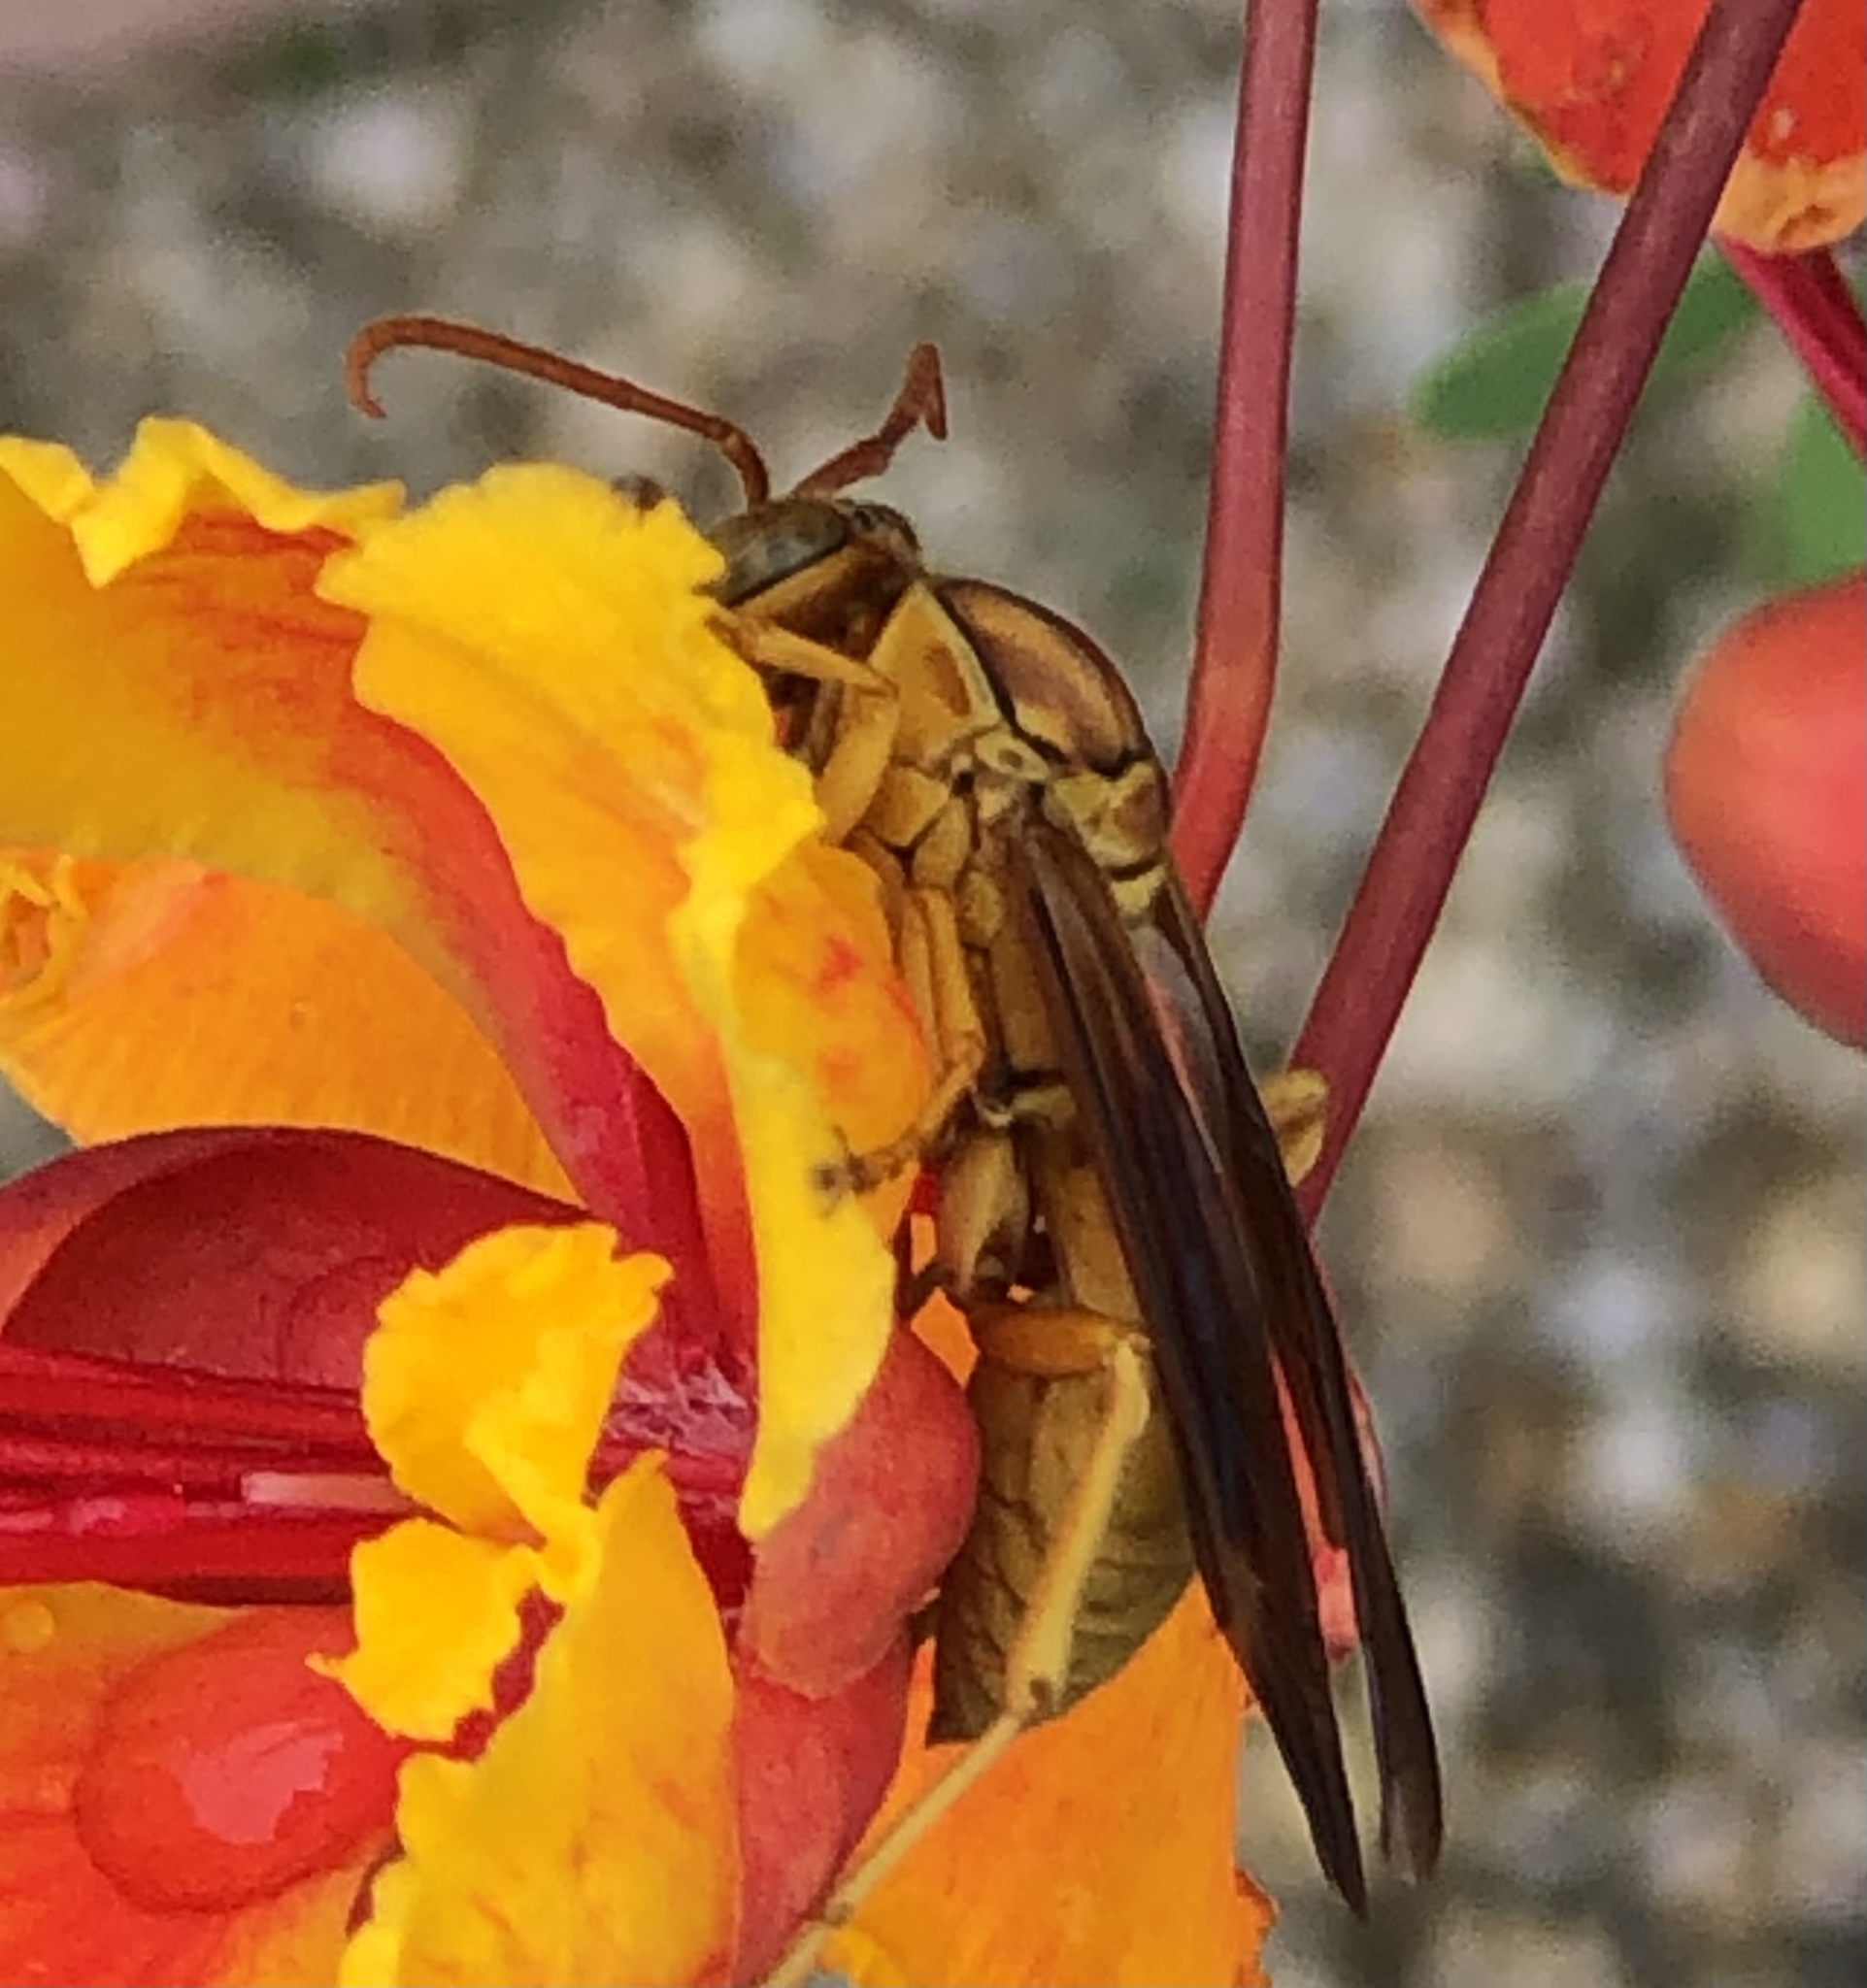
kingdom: Animalia
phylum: Arthropoda
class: Insecta
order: Hymenoptera
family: Eumenidae
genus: Polistes
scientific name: Polistes flavus
